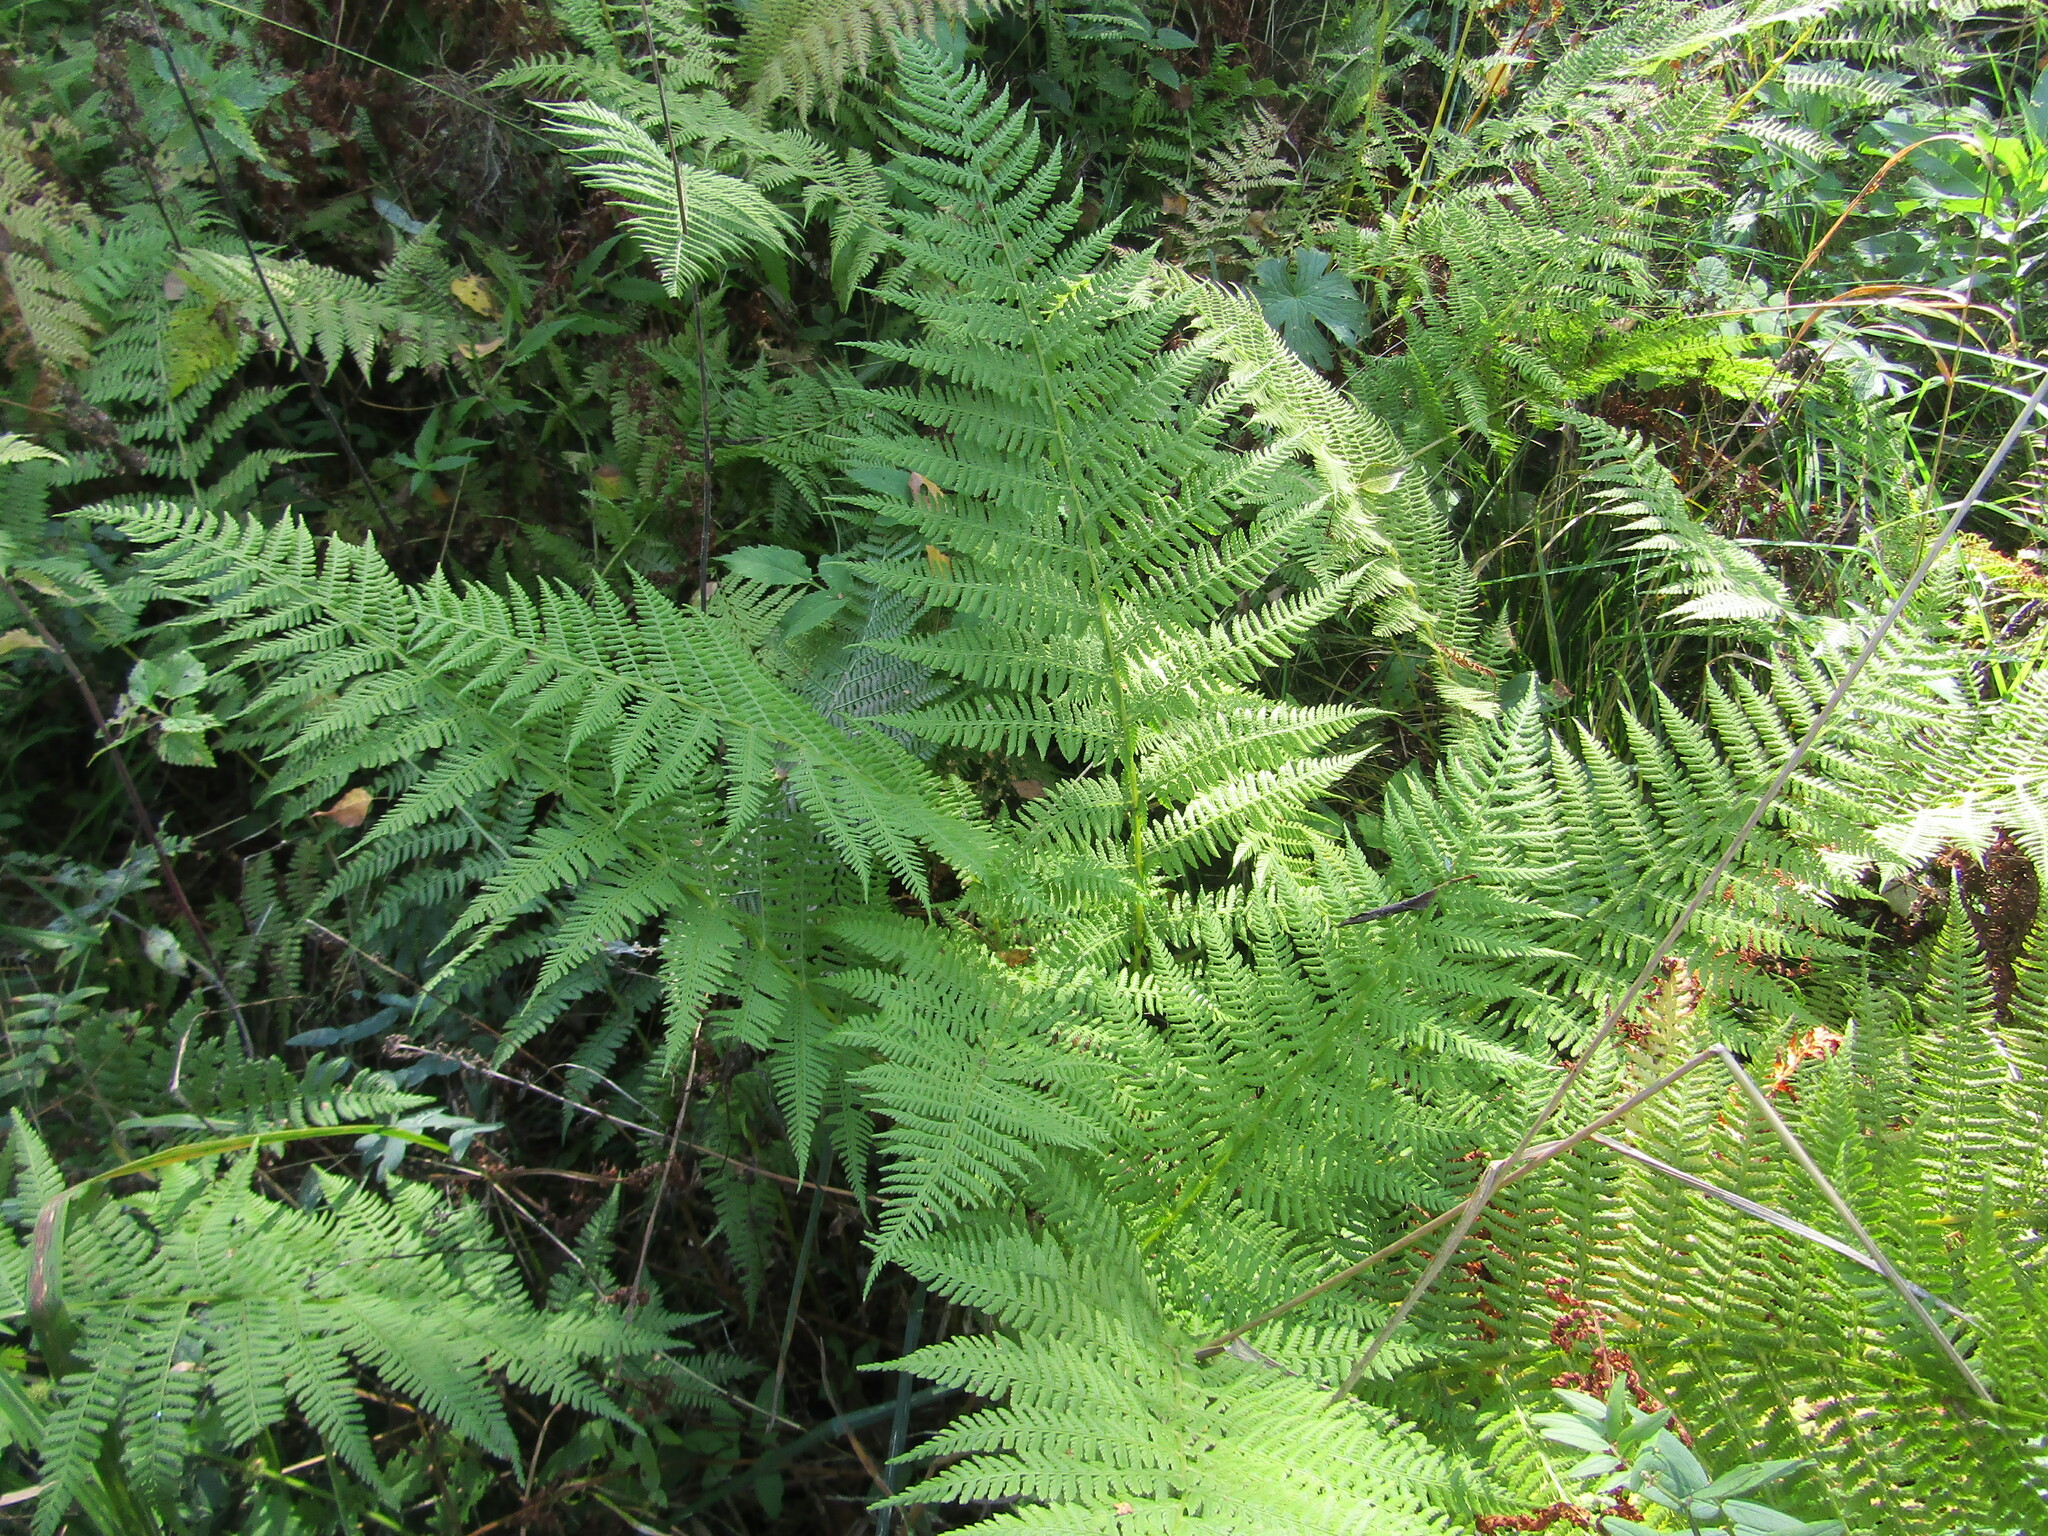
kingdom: Plantae
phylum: Tracheophyta
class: Polypodiopsida
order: Polypodiales
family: Athyriaceae
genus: Athyrium
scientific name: Athyrium filix-femina
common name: Lady fern
